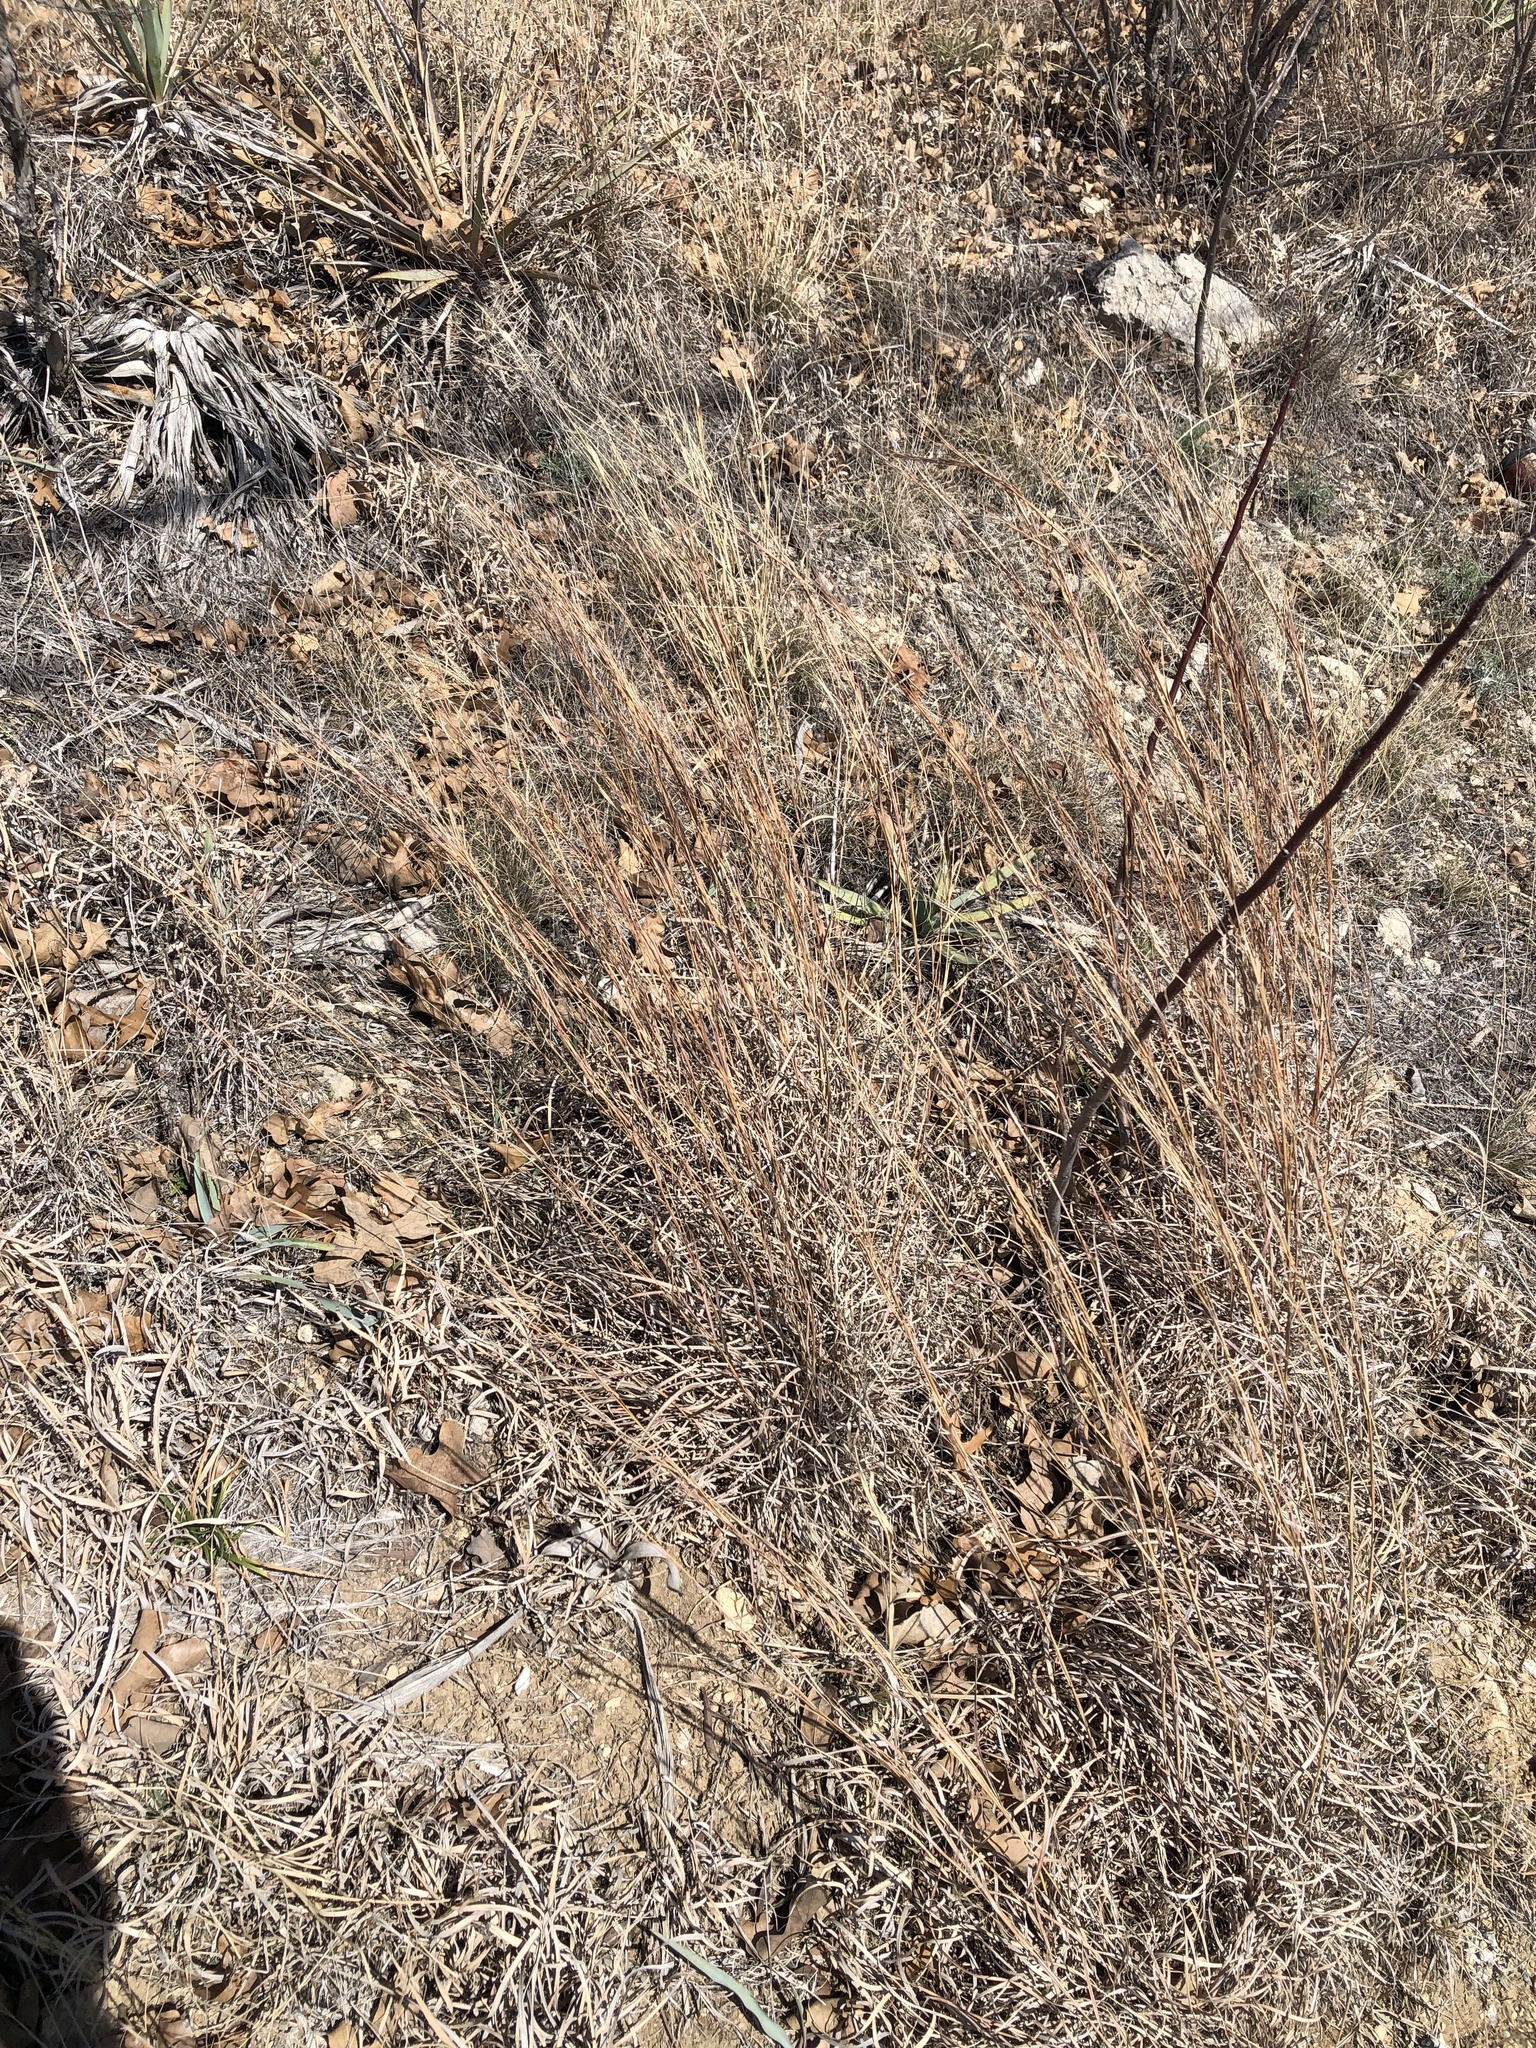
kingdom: Plantae
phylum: Tracheophyta
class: Liliopsida
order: Poales
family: Poaceae
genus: Schizachyrium
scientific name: Schizachyrium scoparium
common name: Little bluestem
